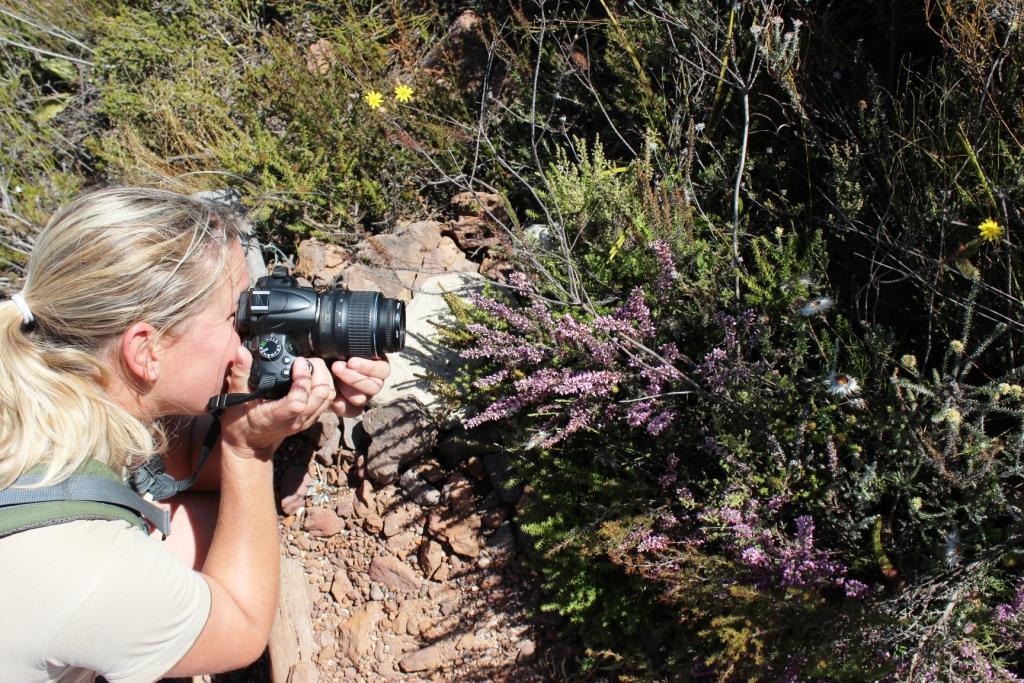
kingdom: Plantae
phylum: Tracheophyta
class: Magnoliopsida
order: Ericales
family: Ericaceae
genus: Erica
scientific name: Erica nudiflora
